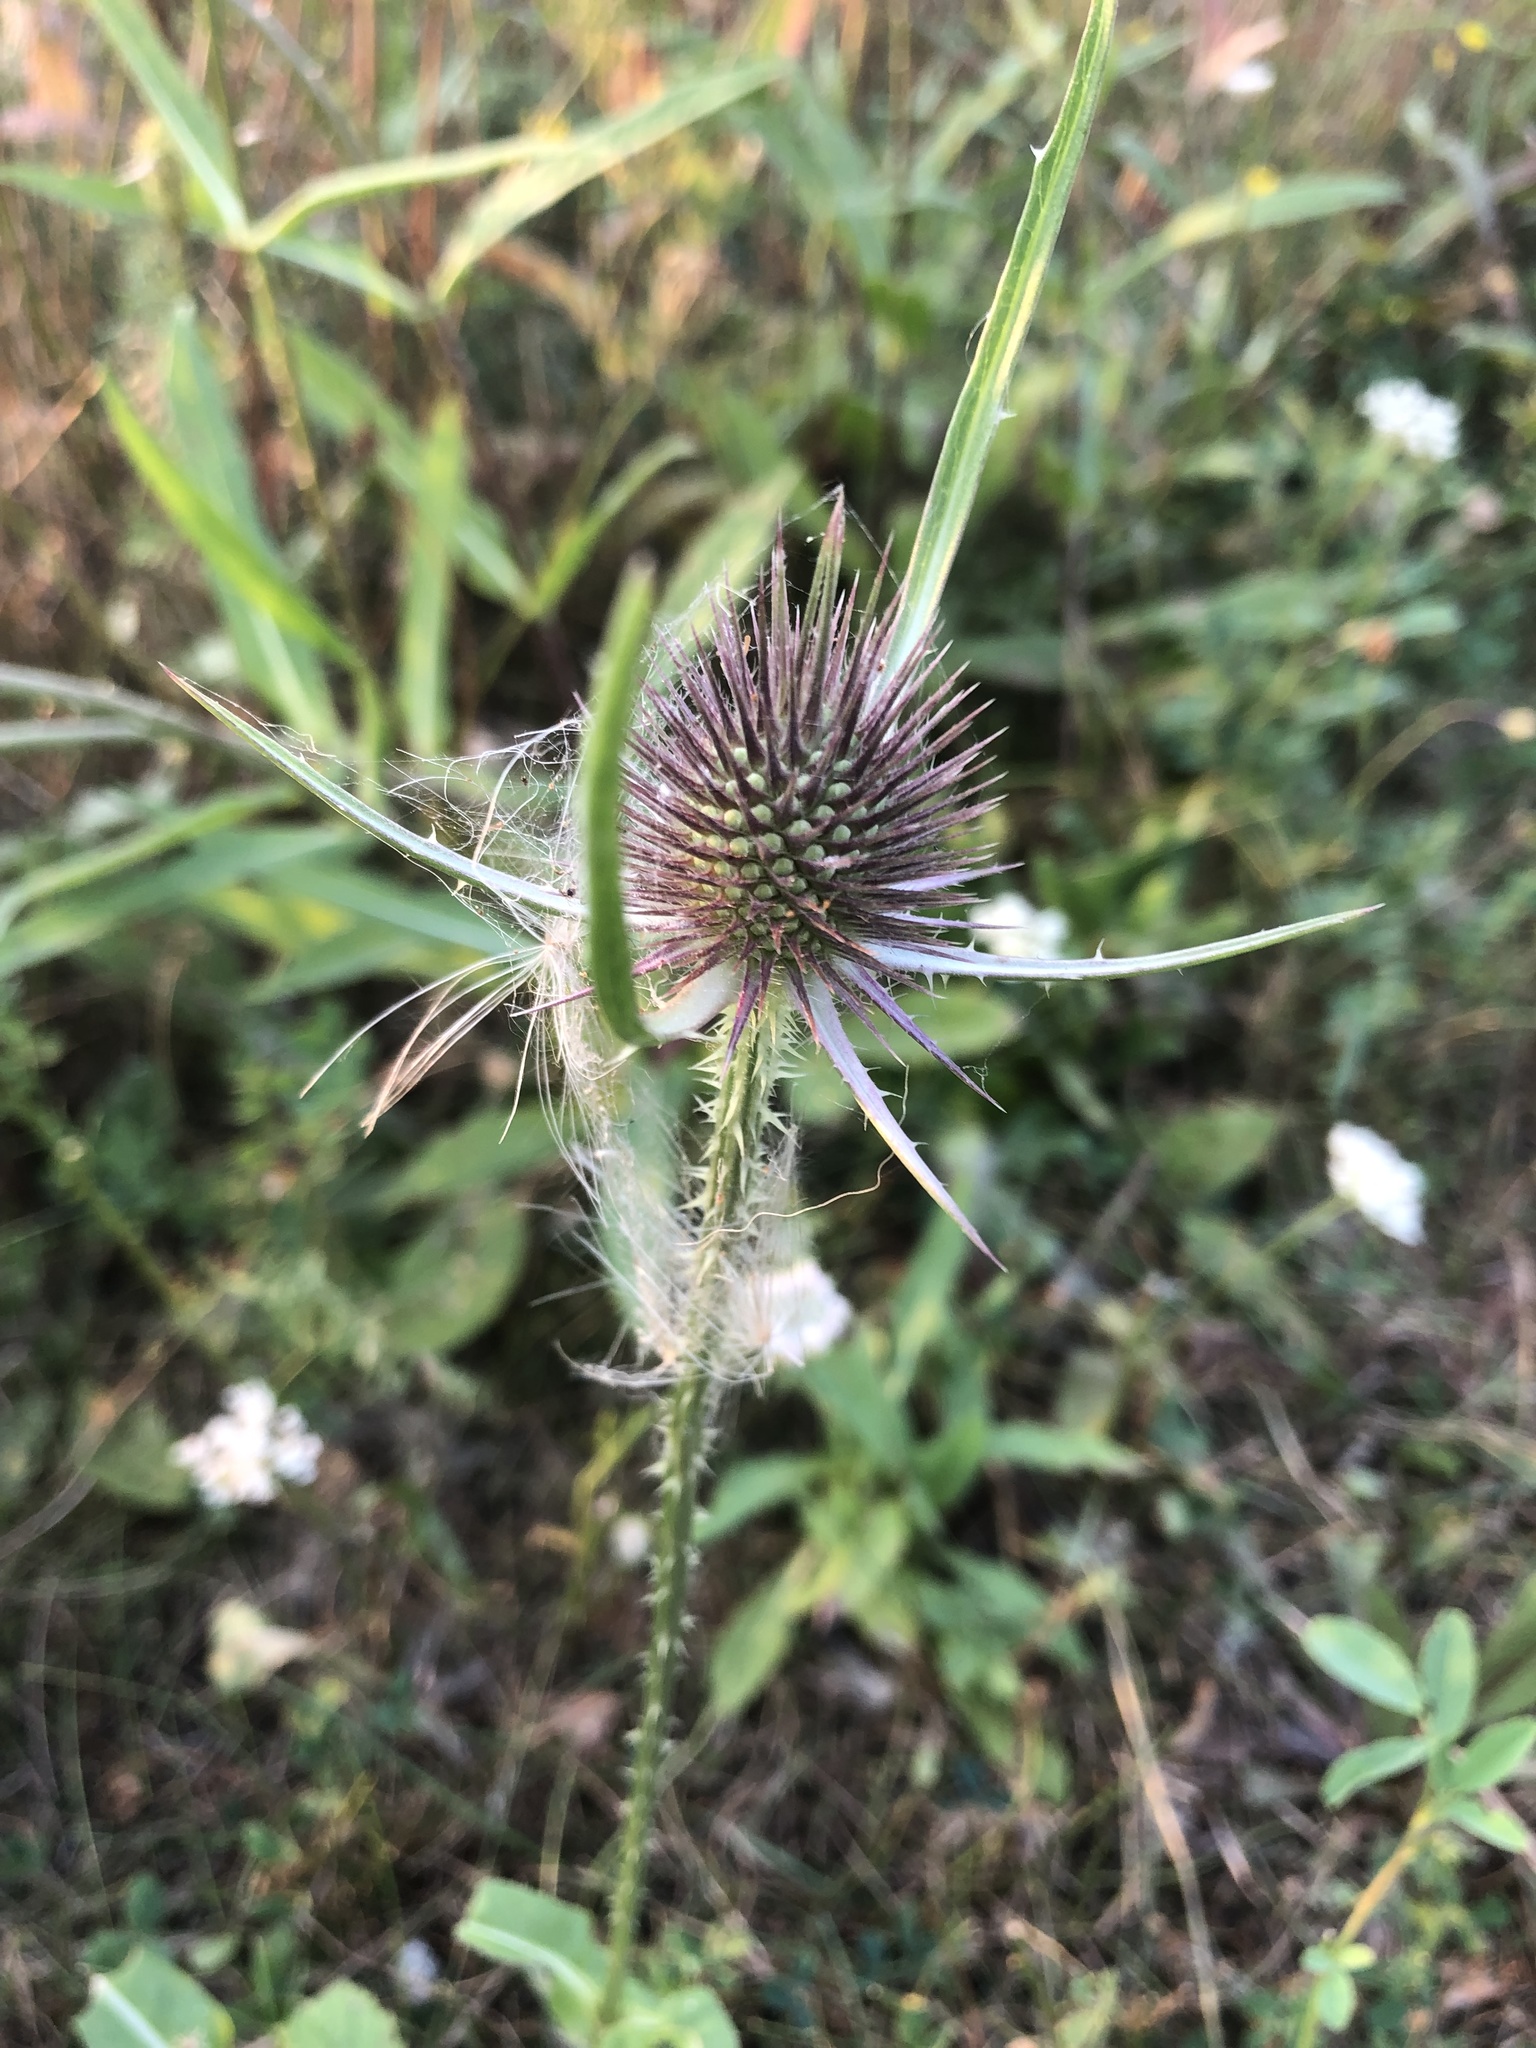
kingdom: Plantae
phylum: Tracheophyta
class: Magnoliopsida
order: Dipsacales
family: Caprifoliaceae
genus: Dipsacus
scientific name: Dipsacus fullonum
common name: Teasel
